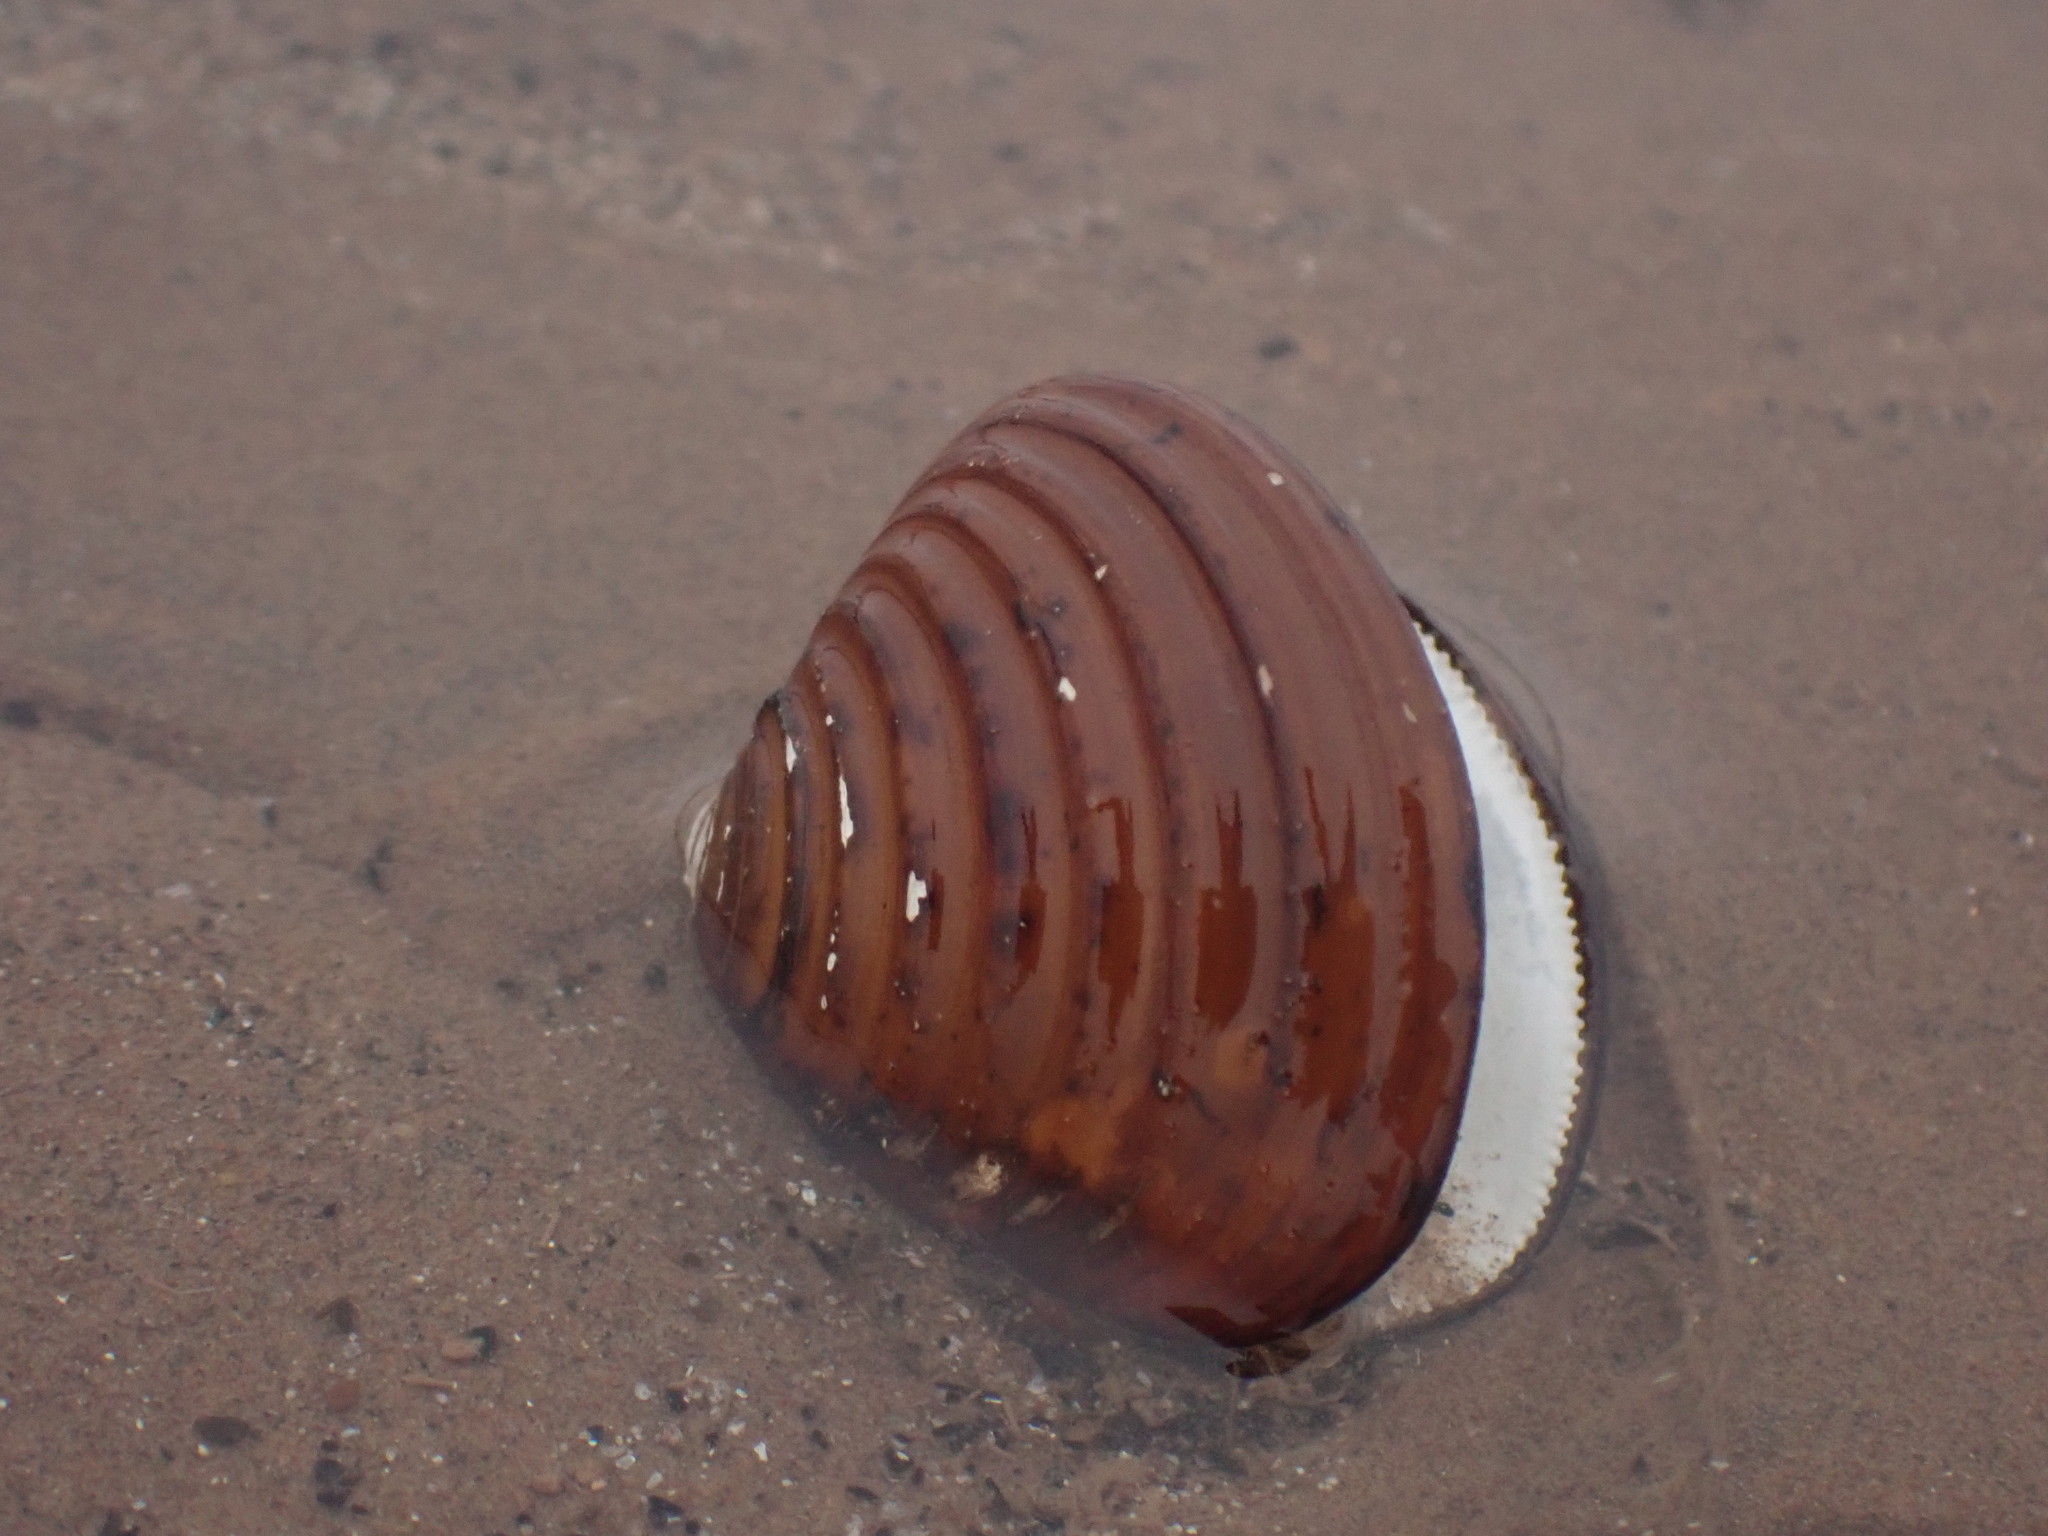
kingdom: Animalia
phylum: Mollusca
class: Bivalvia
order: Carditida
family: Astartidae
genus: Astarte
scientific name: Astarte undata
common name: Wavy astarte
